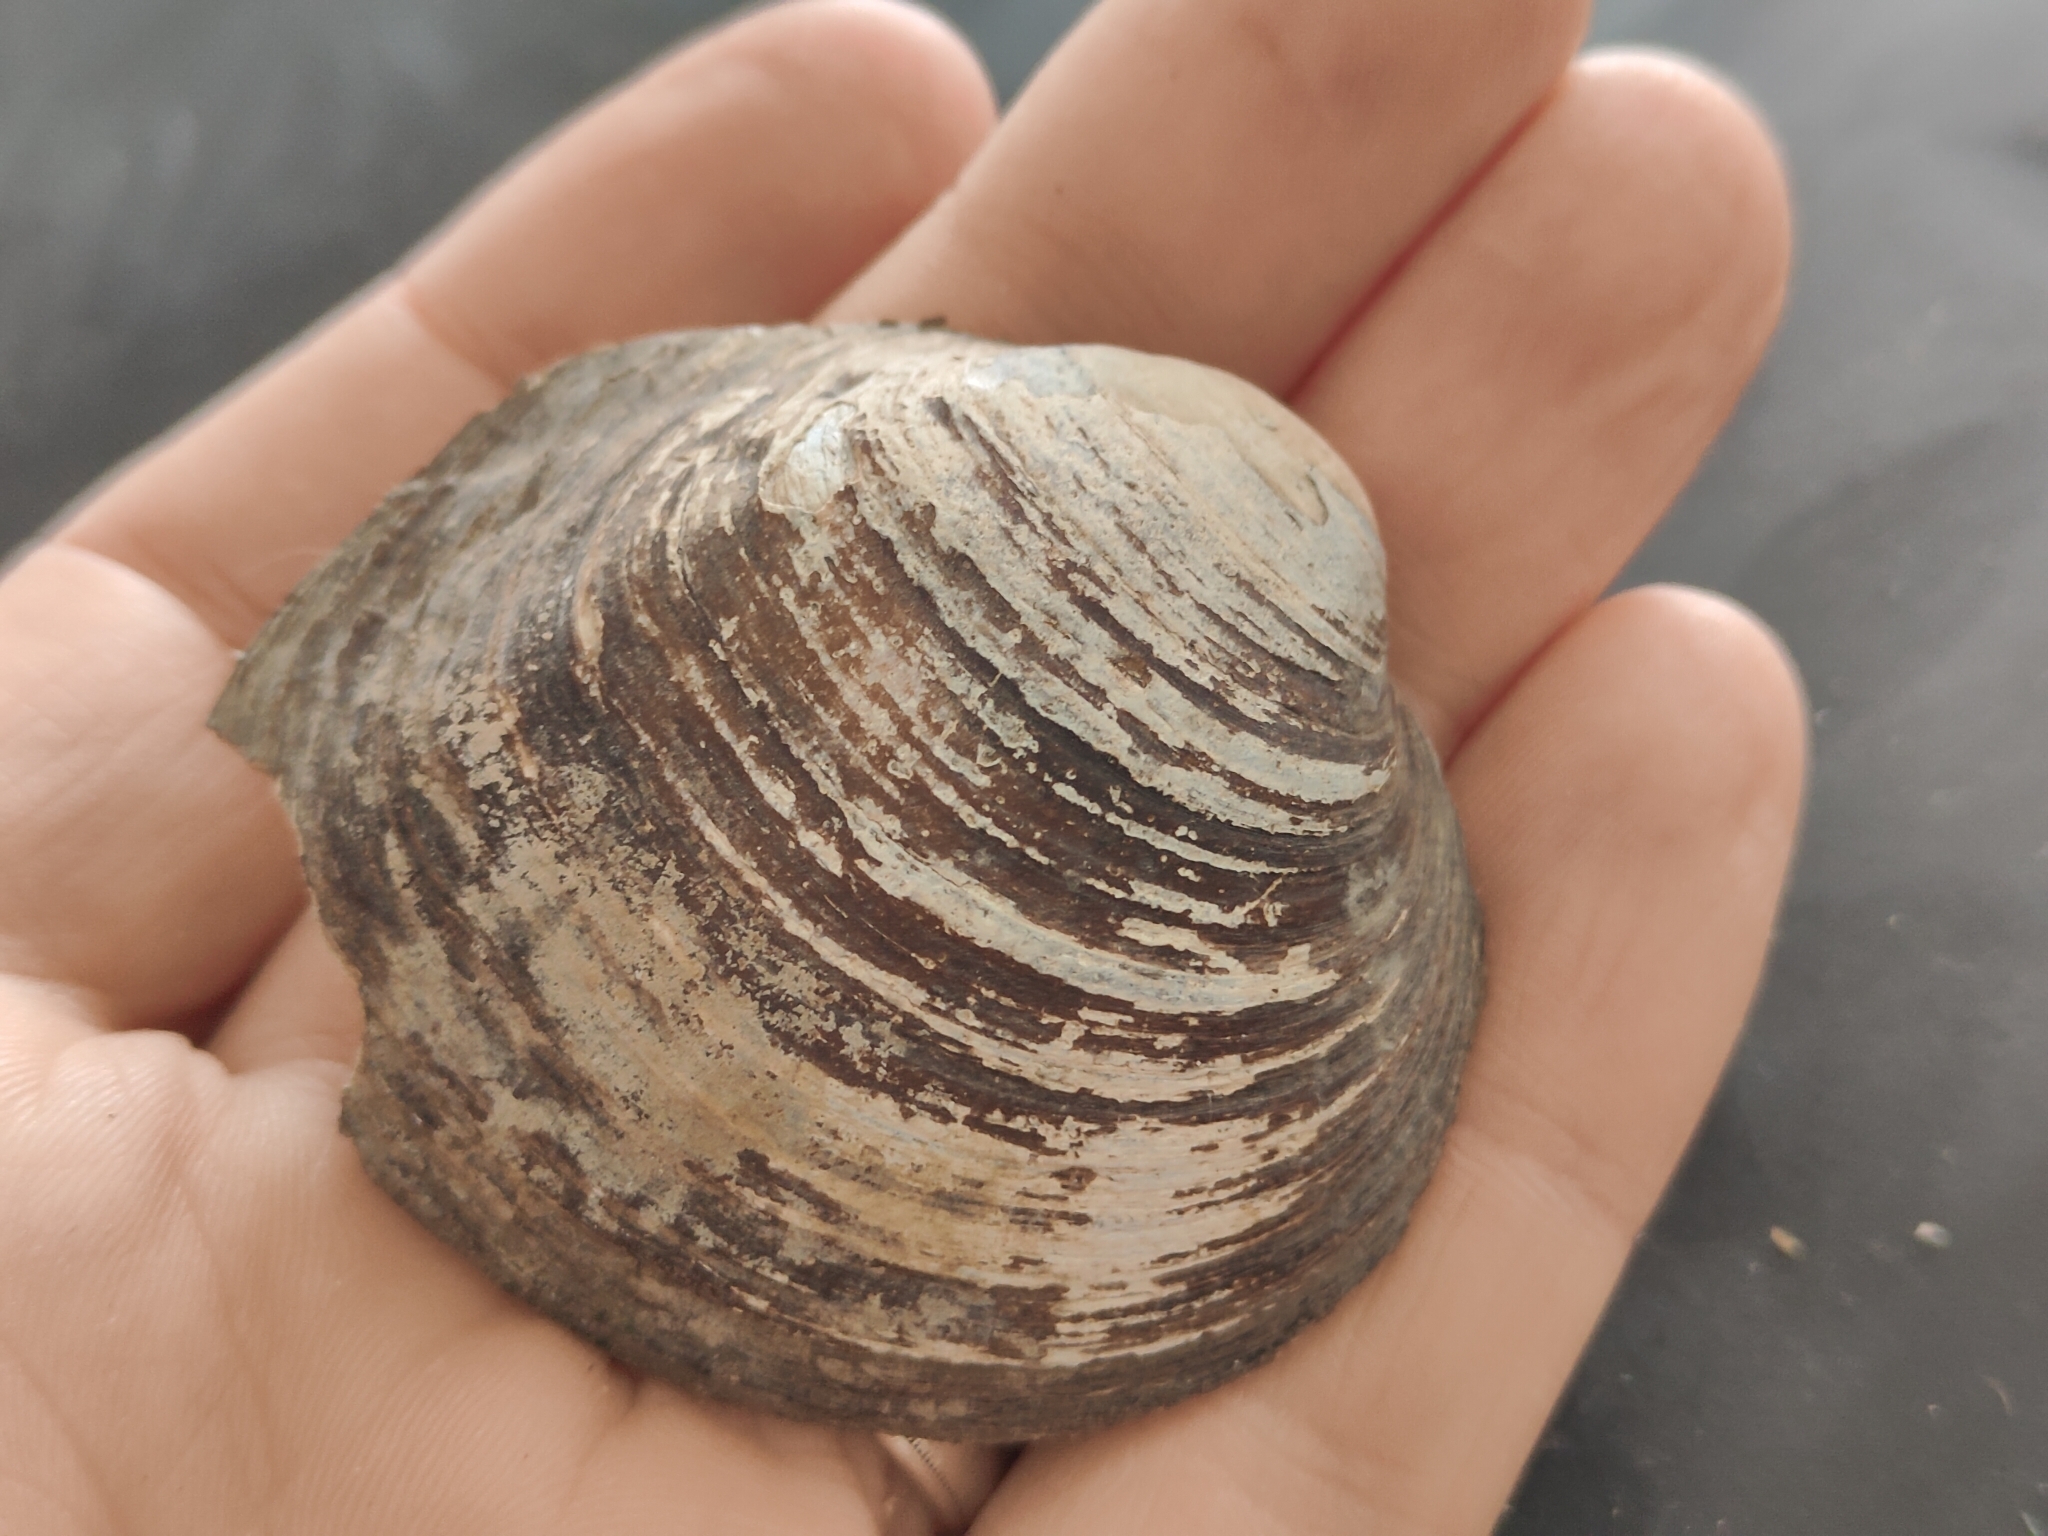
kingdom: Animalia
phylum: Mollusca
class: Bivalvia
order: Unionida
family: Unionidae
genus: Cyclonaias
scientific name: Cyclonaias pustulosa
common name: Pimpleback
